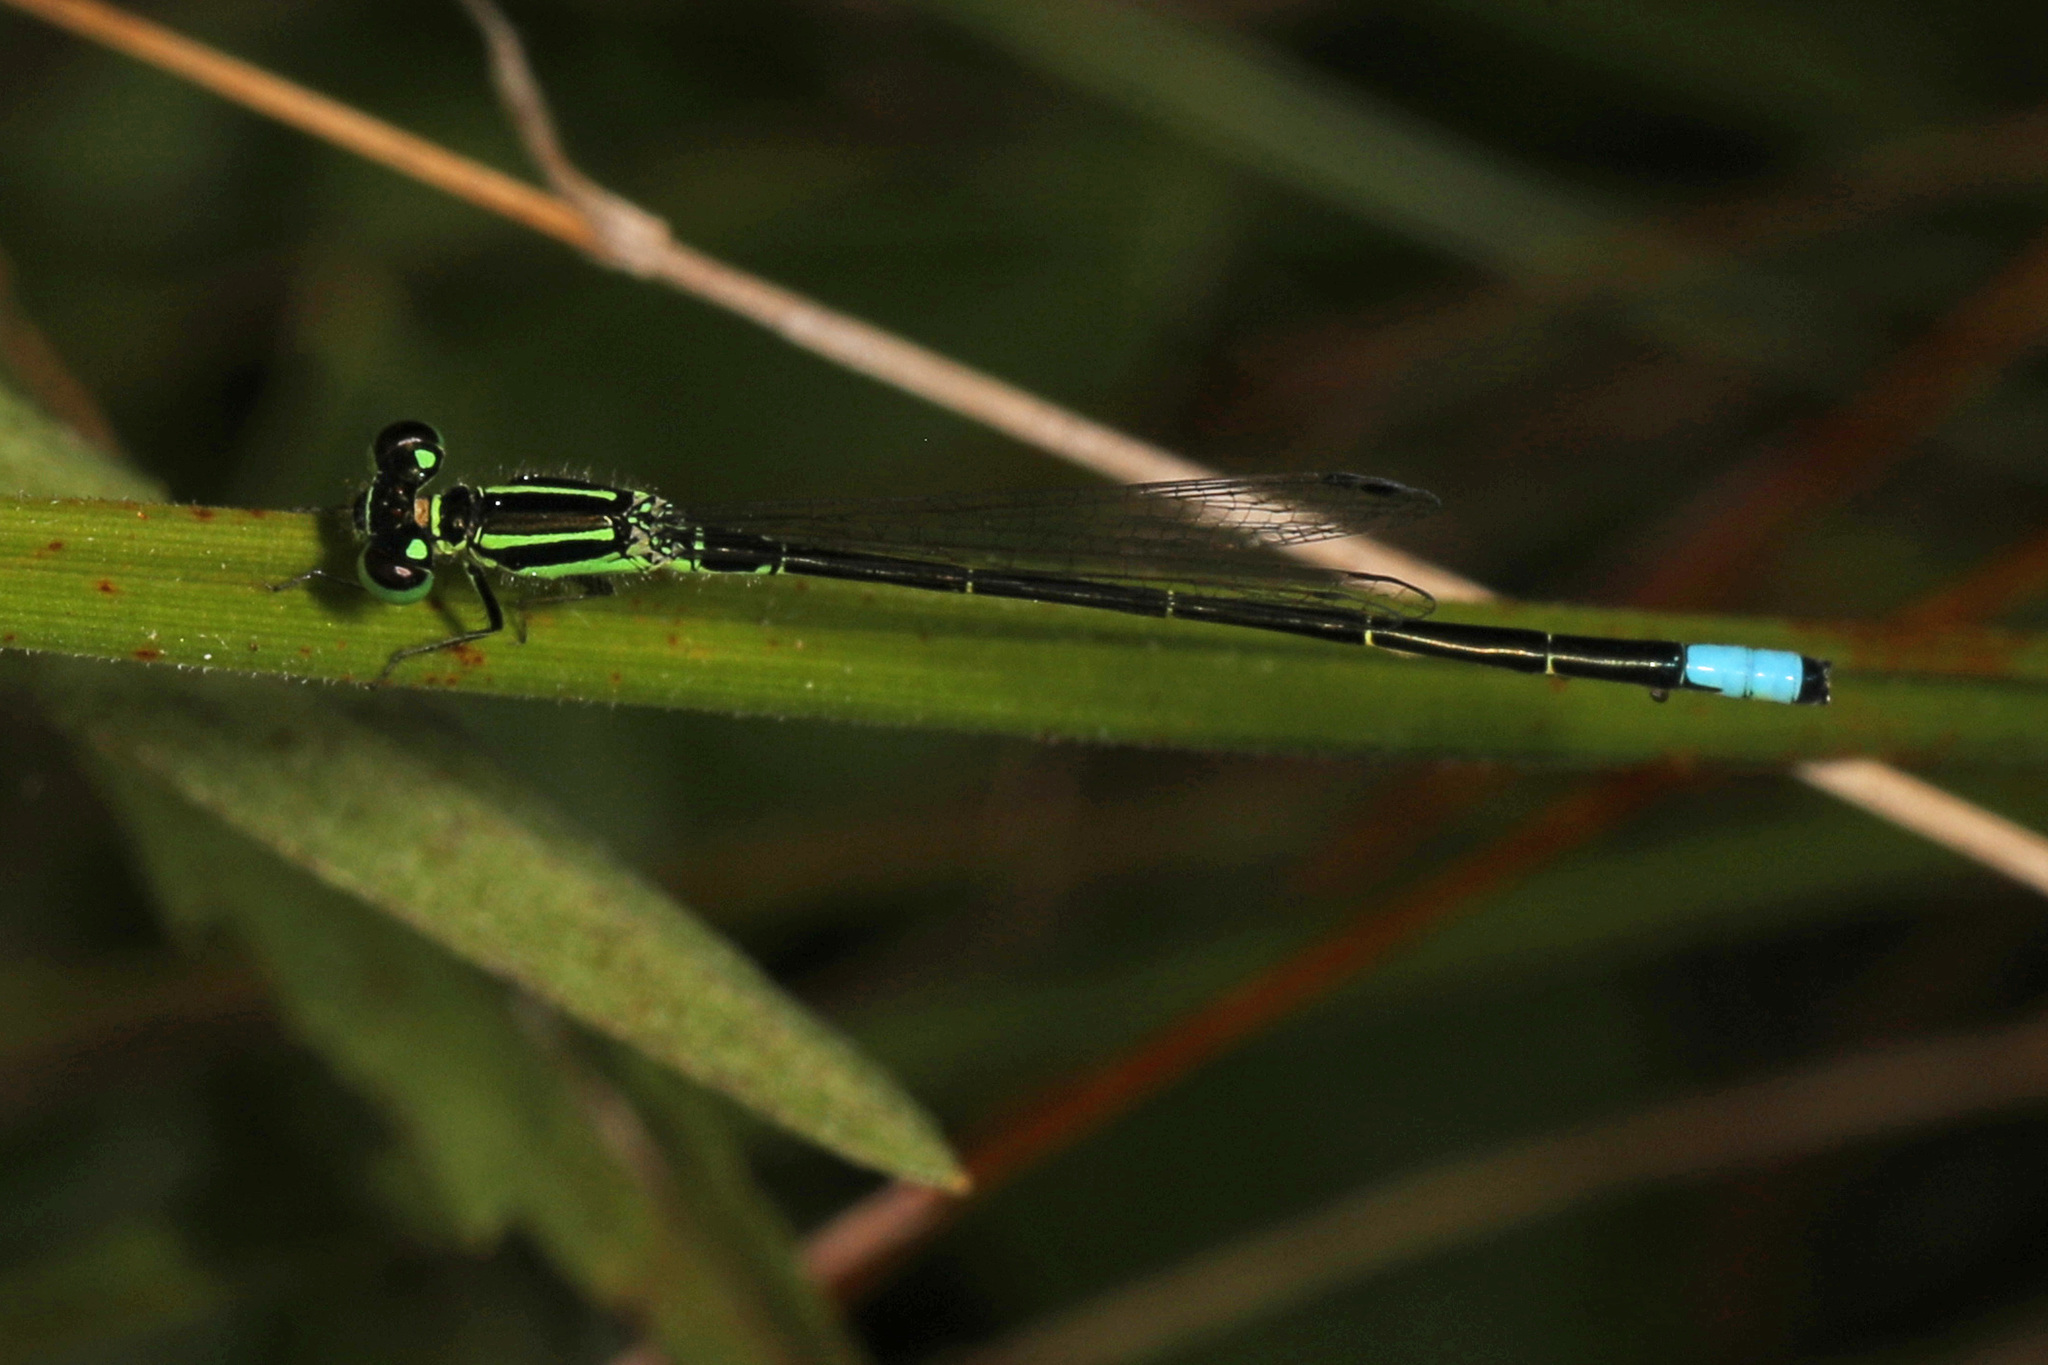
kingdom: Animalia
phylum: Arthropoda
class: Insecta
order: Odonata
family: Coenagrionidae
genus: Ischnura
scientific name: Ischnura verticalis
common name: Eastern forktail
